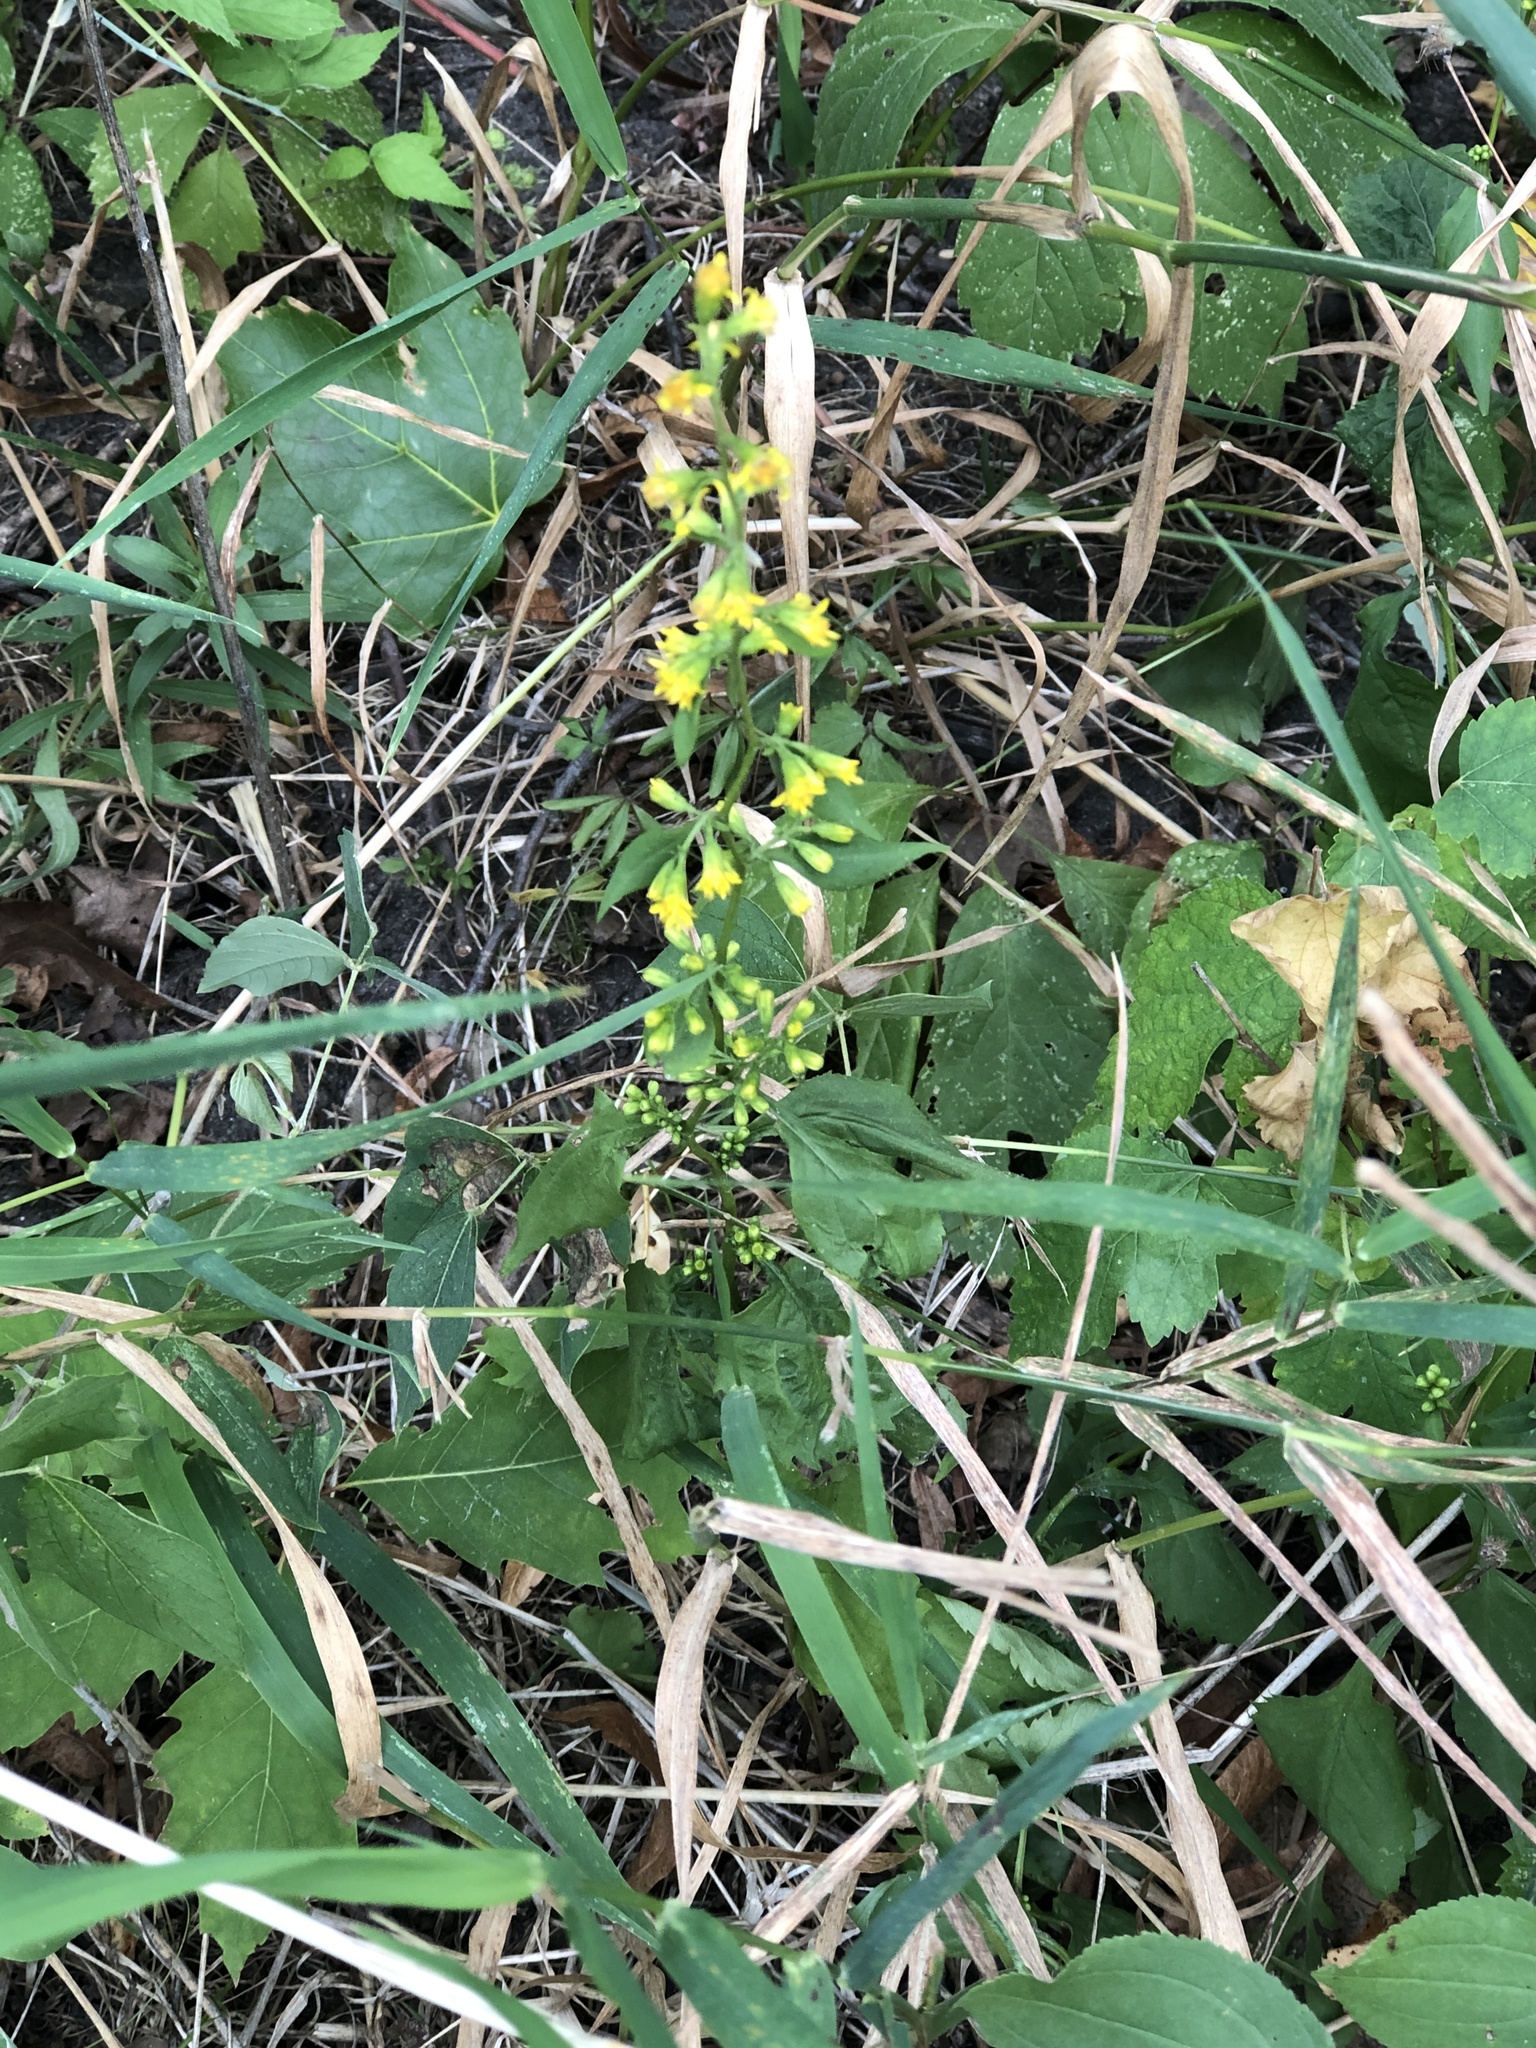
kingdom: Plantae
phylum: Tracheophyta
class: Magnoliopsida
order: Asterales
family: Asteraceae
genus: Solidago
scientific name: Solidago flexicaulis
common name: Zig-zag goldenrod
